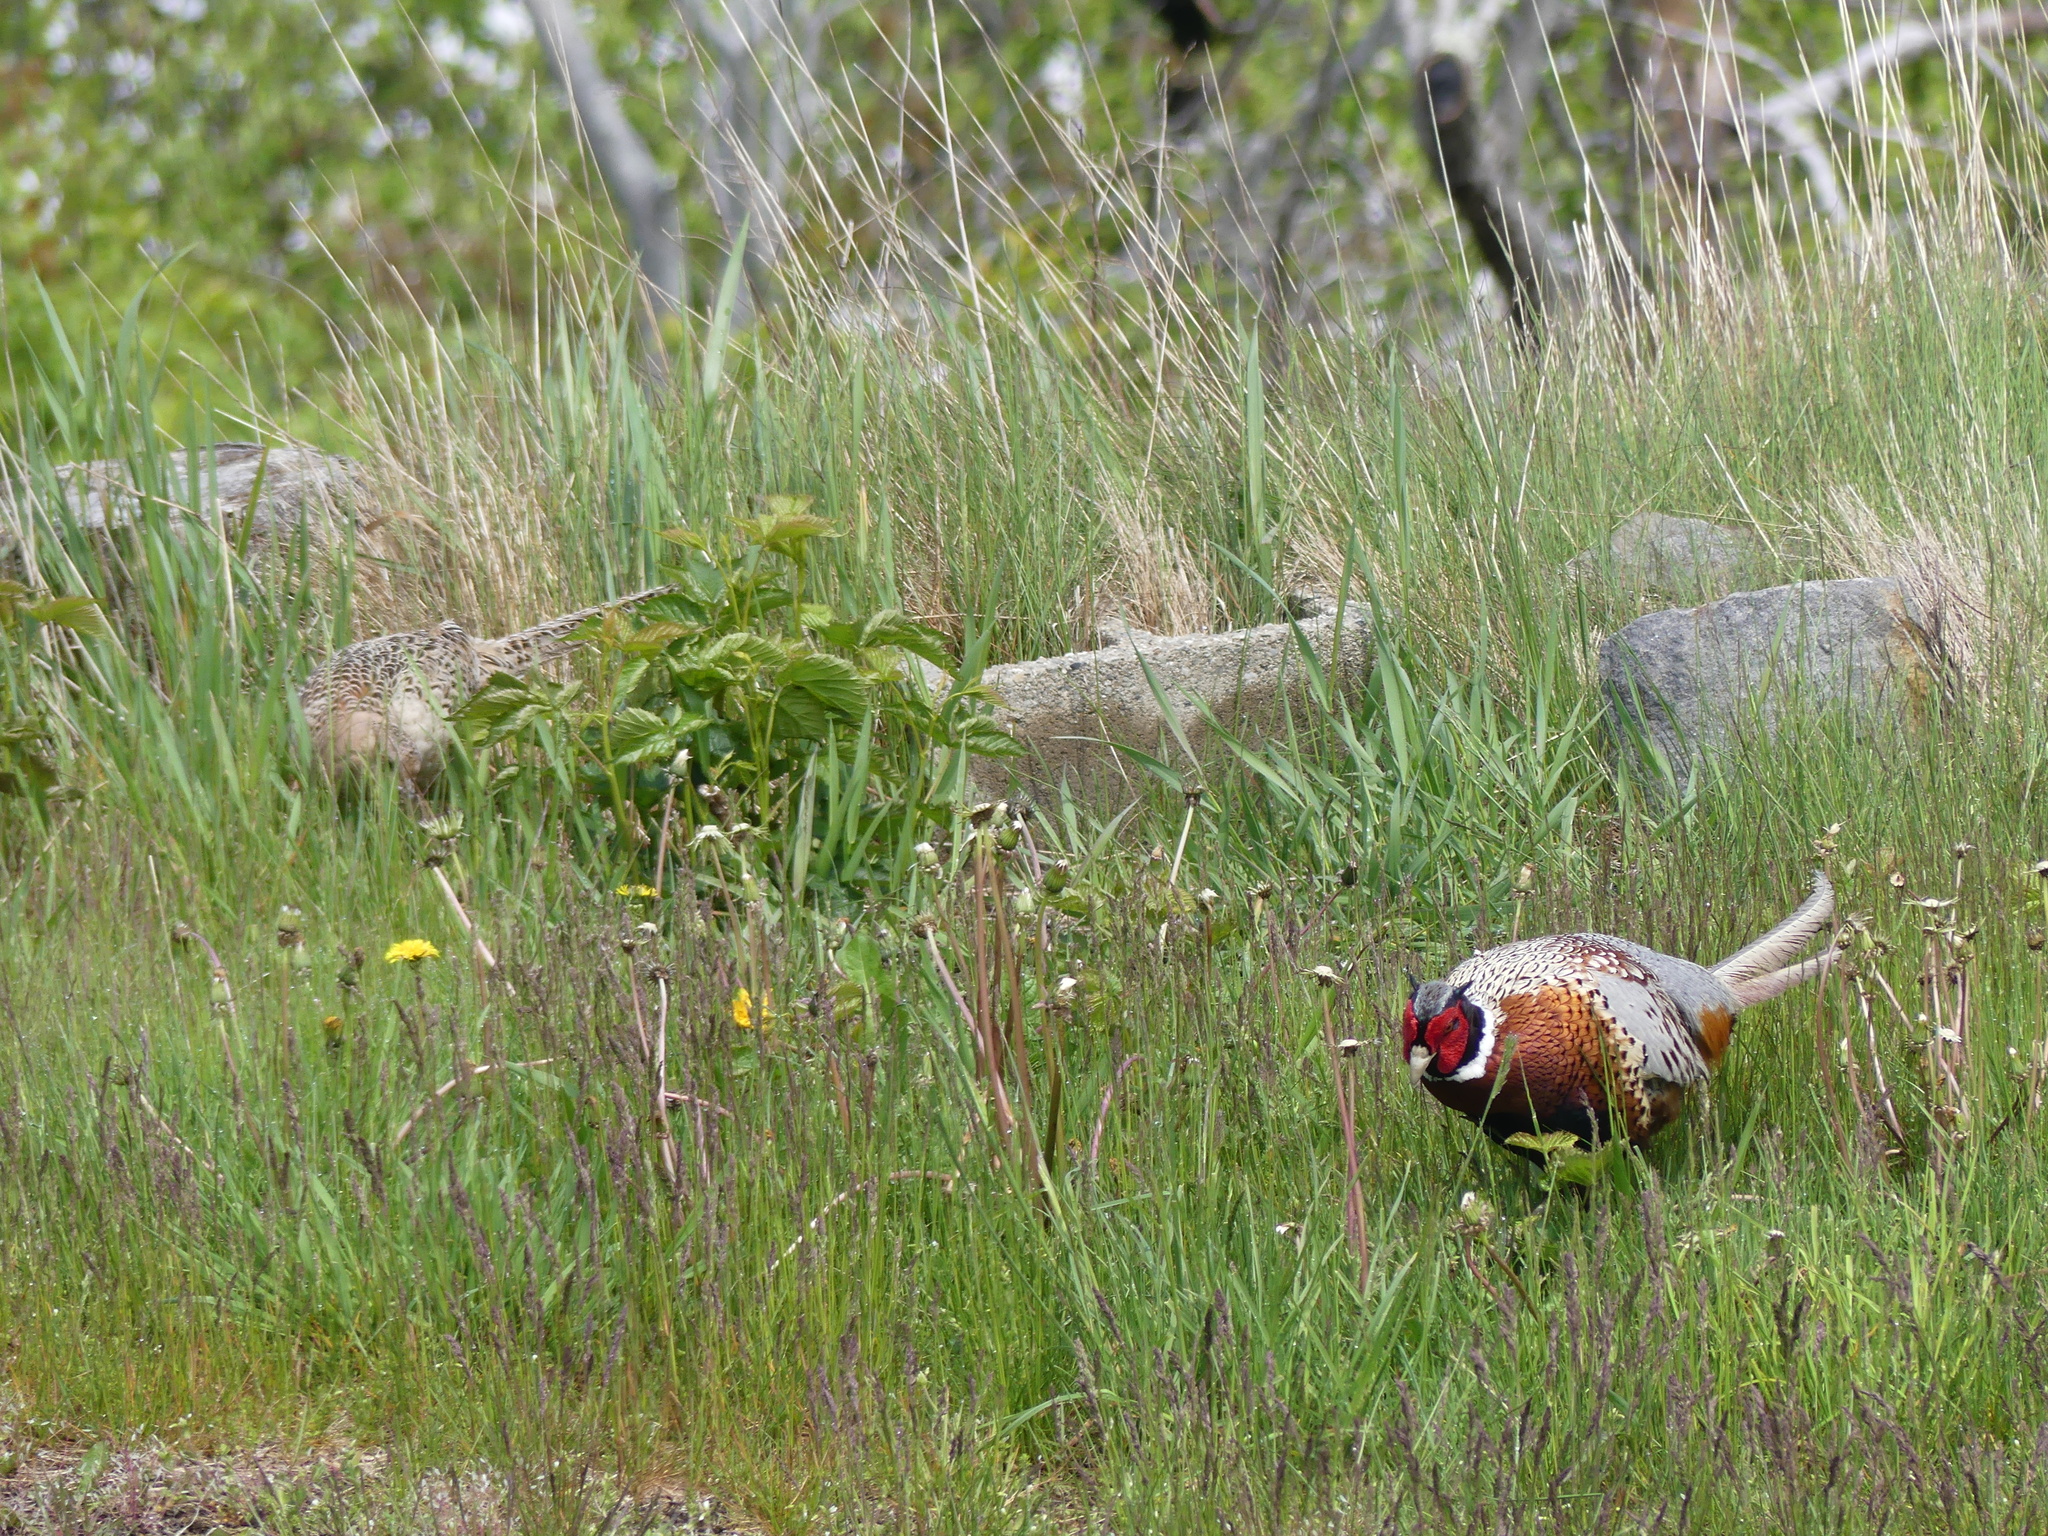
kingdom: Animalia
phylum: Chordata
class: Aves
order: Galliformes
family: Phasianidae
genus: Phasianus
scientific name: Phasianus colchicus
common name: Common pheasant
